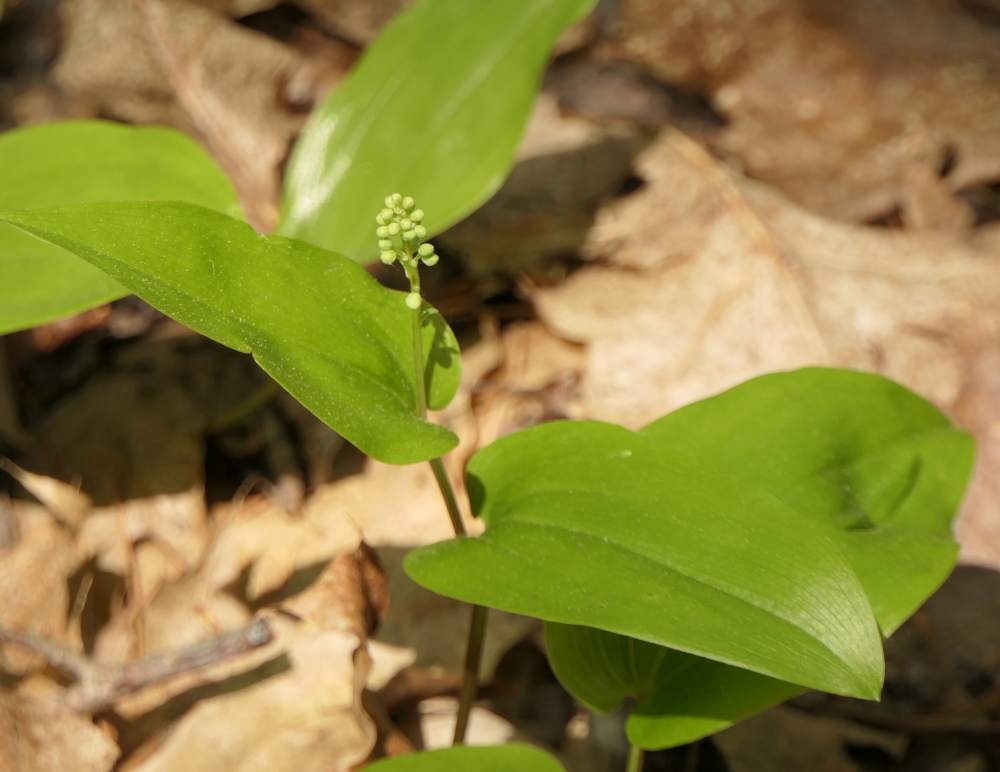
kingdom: Plantae
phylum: Tracheophyta
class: Liliopsida
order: Asparagales
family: Asparagaceae
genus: Maianthemum
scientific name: Maianthemum canadense
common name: False lily-of-the-valley
